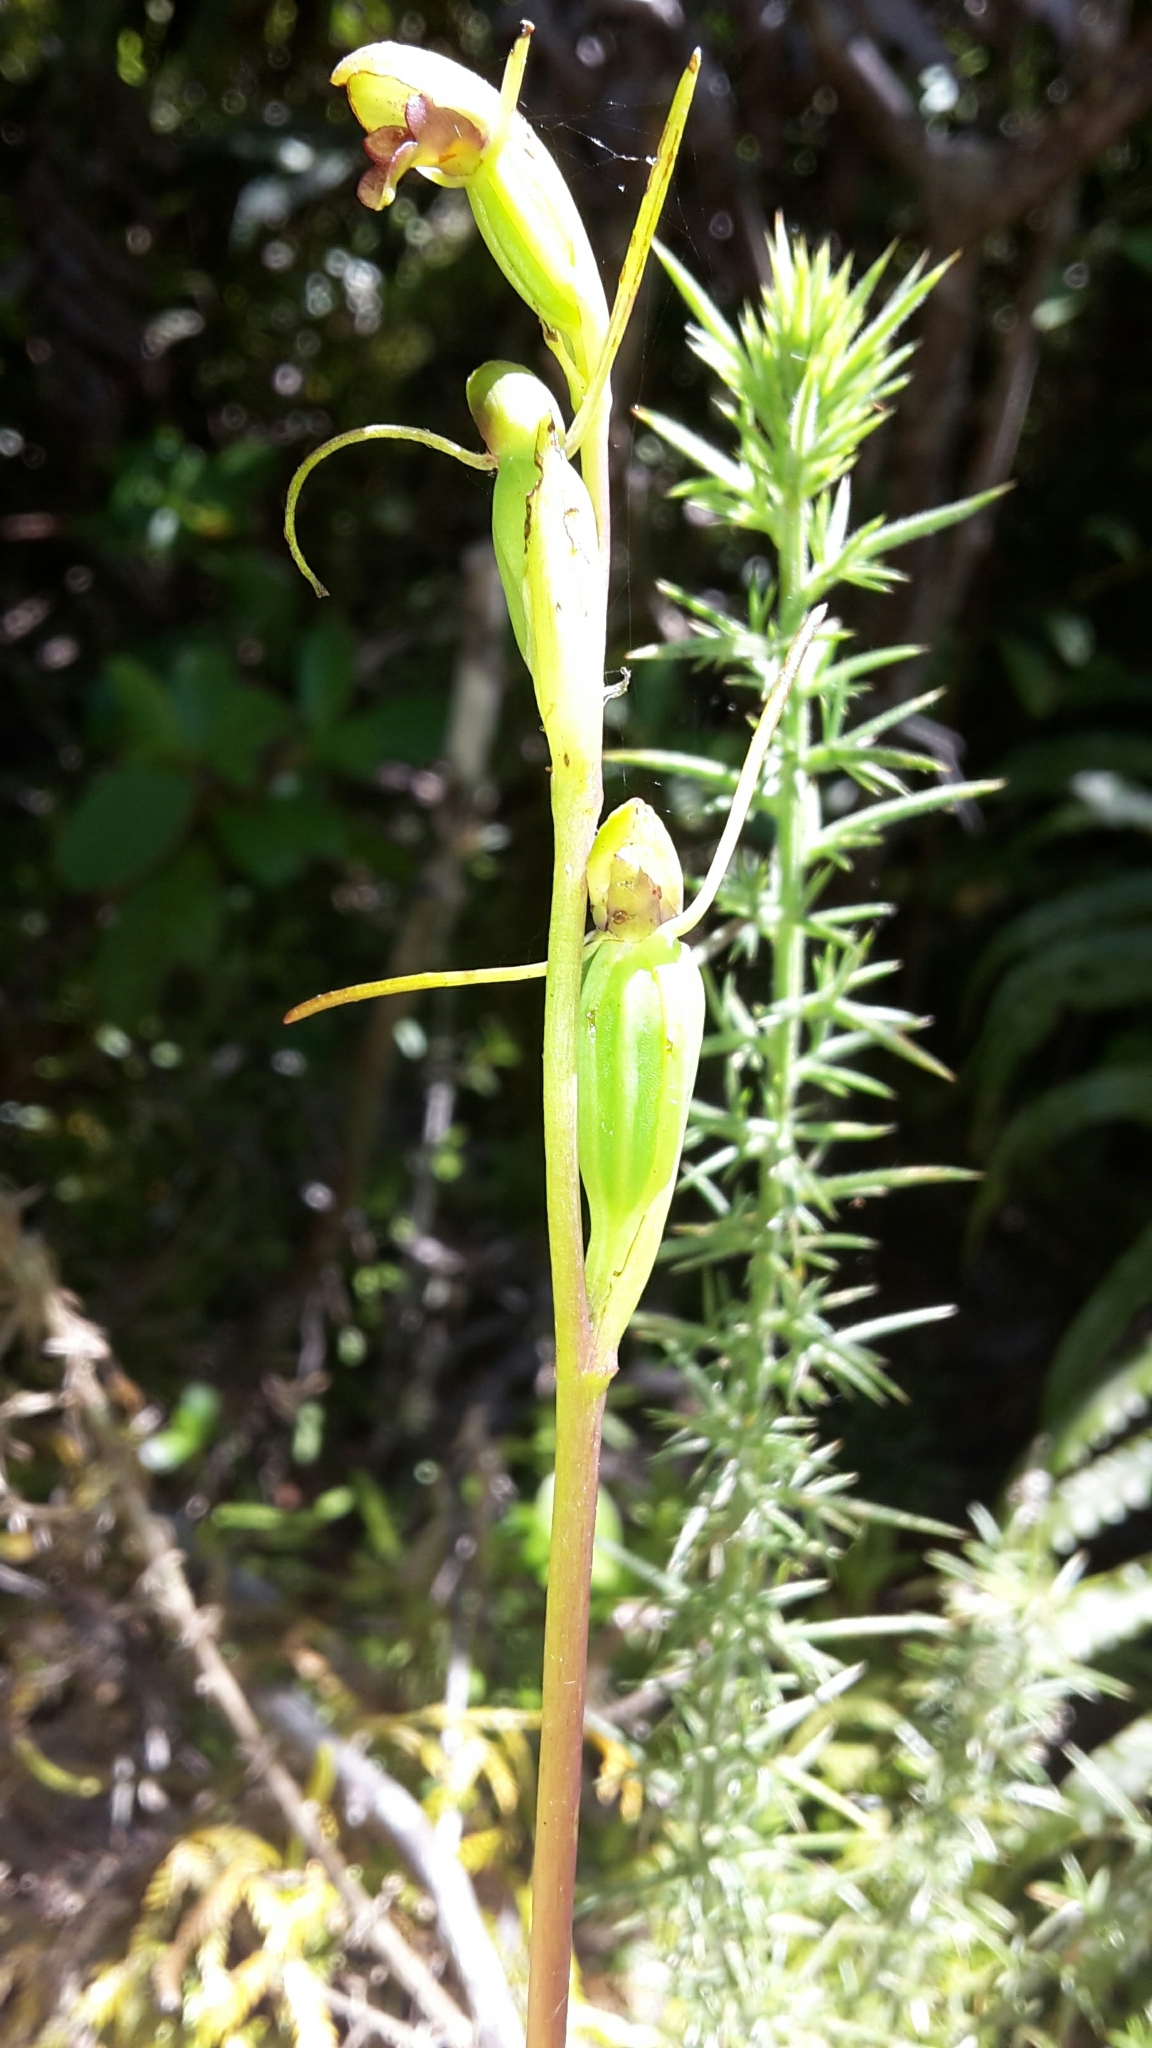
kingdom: Plantae
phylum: Tracheophyta
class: Liliopsida
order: Asparagales
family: Orchidaceae
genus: Orthoceras
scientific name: Orthoceras novae-zeelandiae
